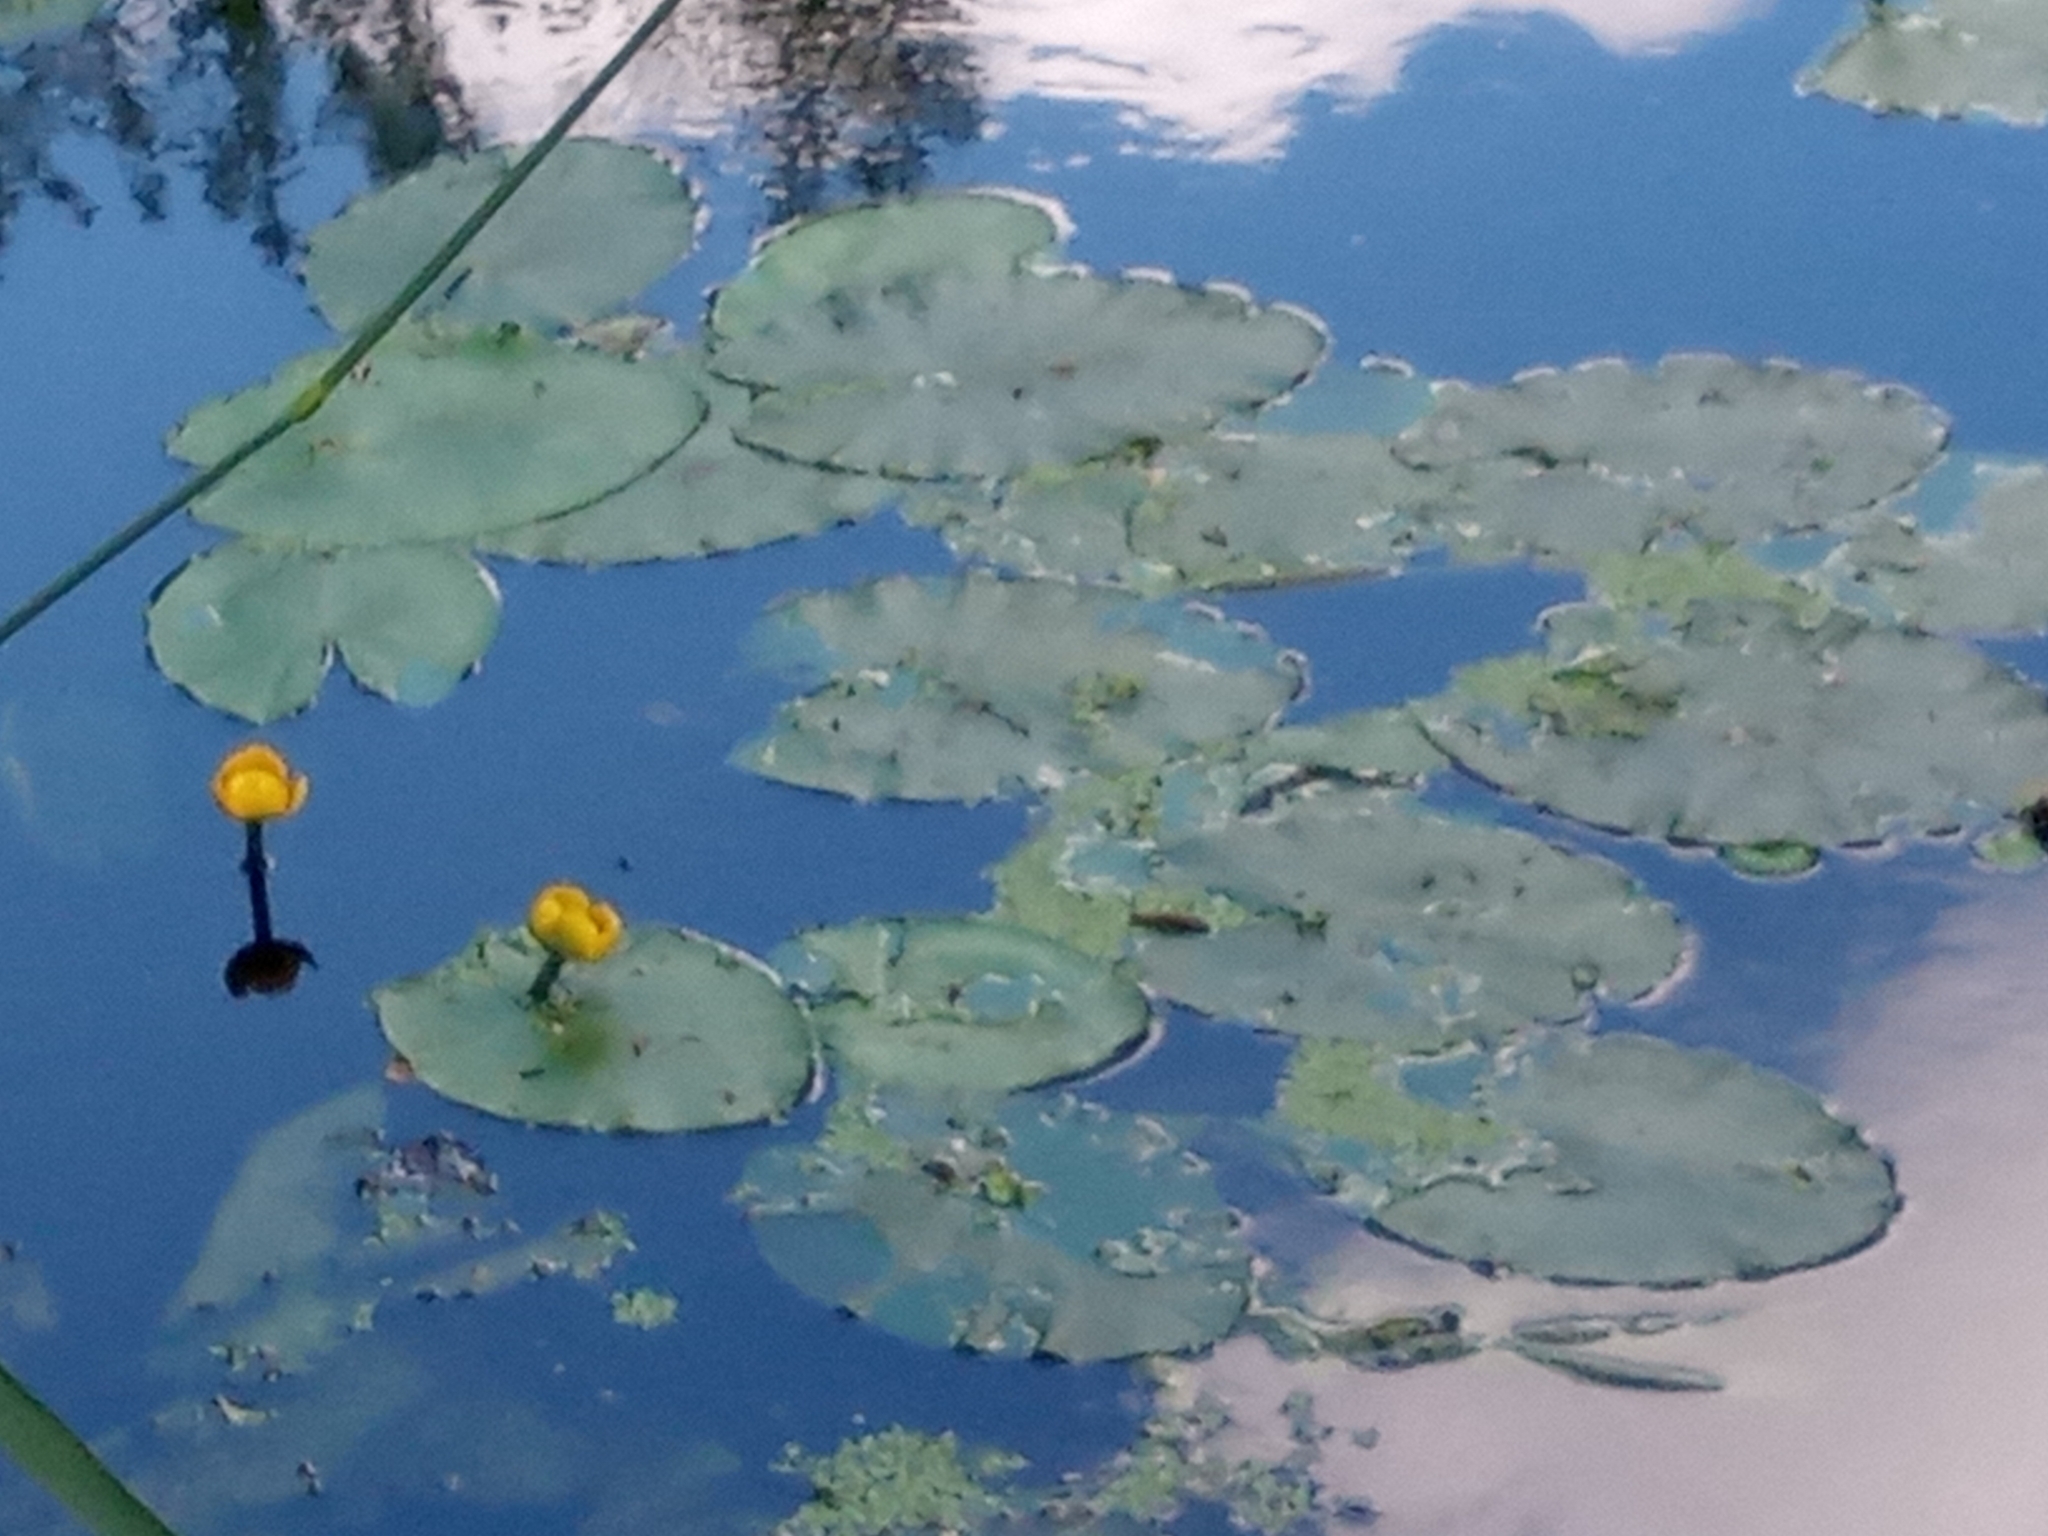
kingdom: Plantae
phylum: Tracheophyta
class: Magnoliopsida
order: Nymphaeales
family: Nymphaeaceae
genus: Nuphar
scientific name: Nuphar lutea
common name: Yellow water-lily
